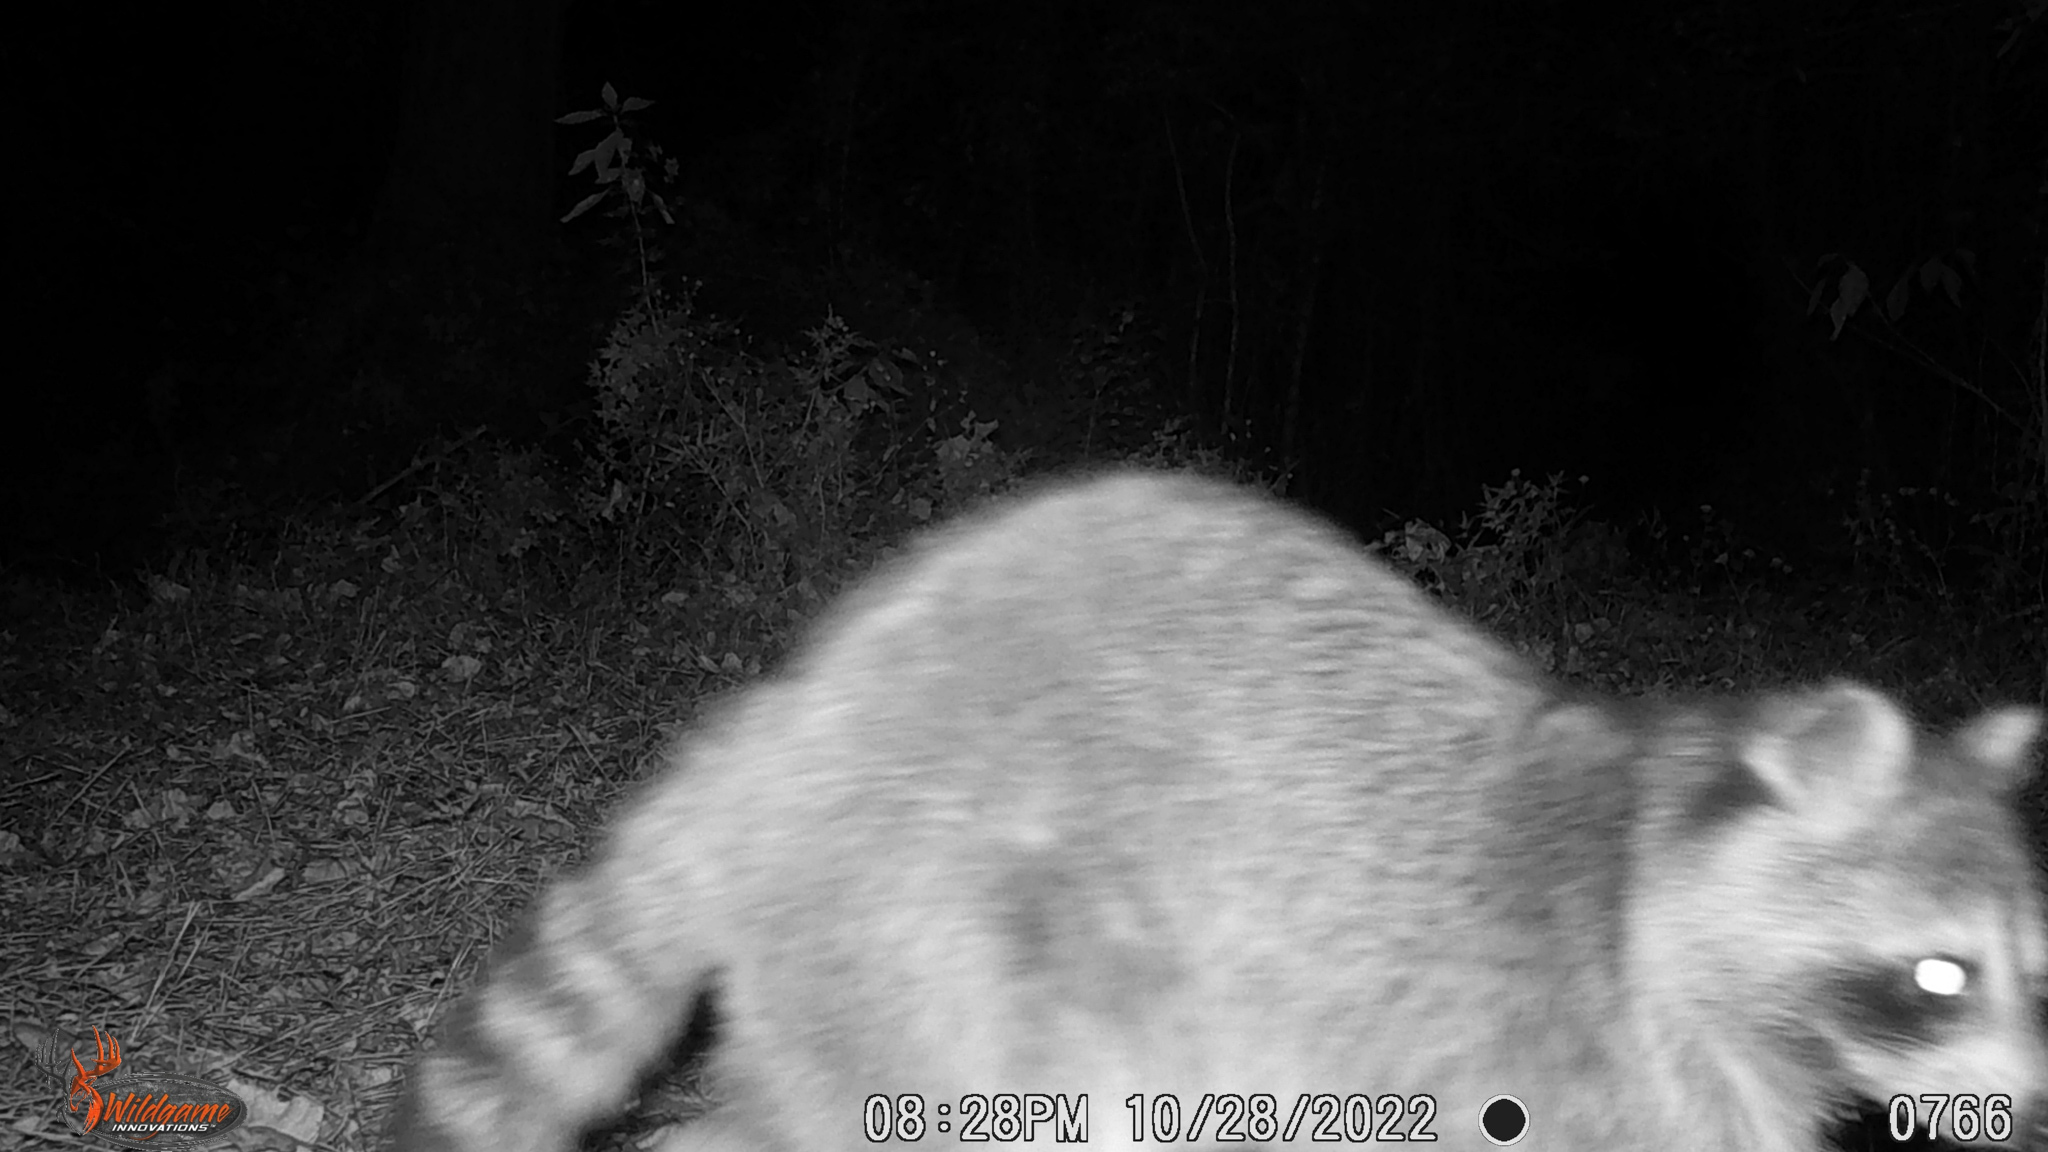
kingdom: Animalia
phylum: Chordata
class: Mammalia
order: Carnivora
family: Procyonidae
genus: Procyon
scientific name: Procyon lotor
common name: Raccoon
